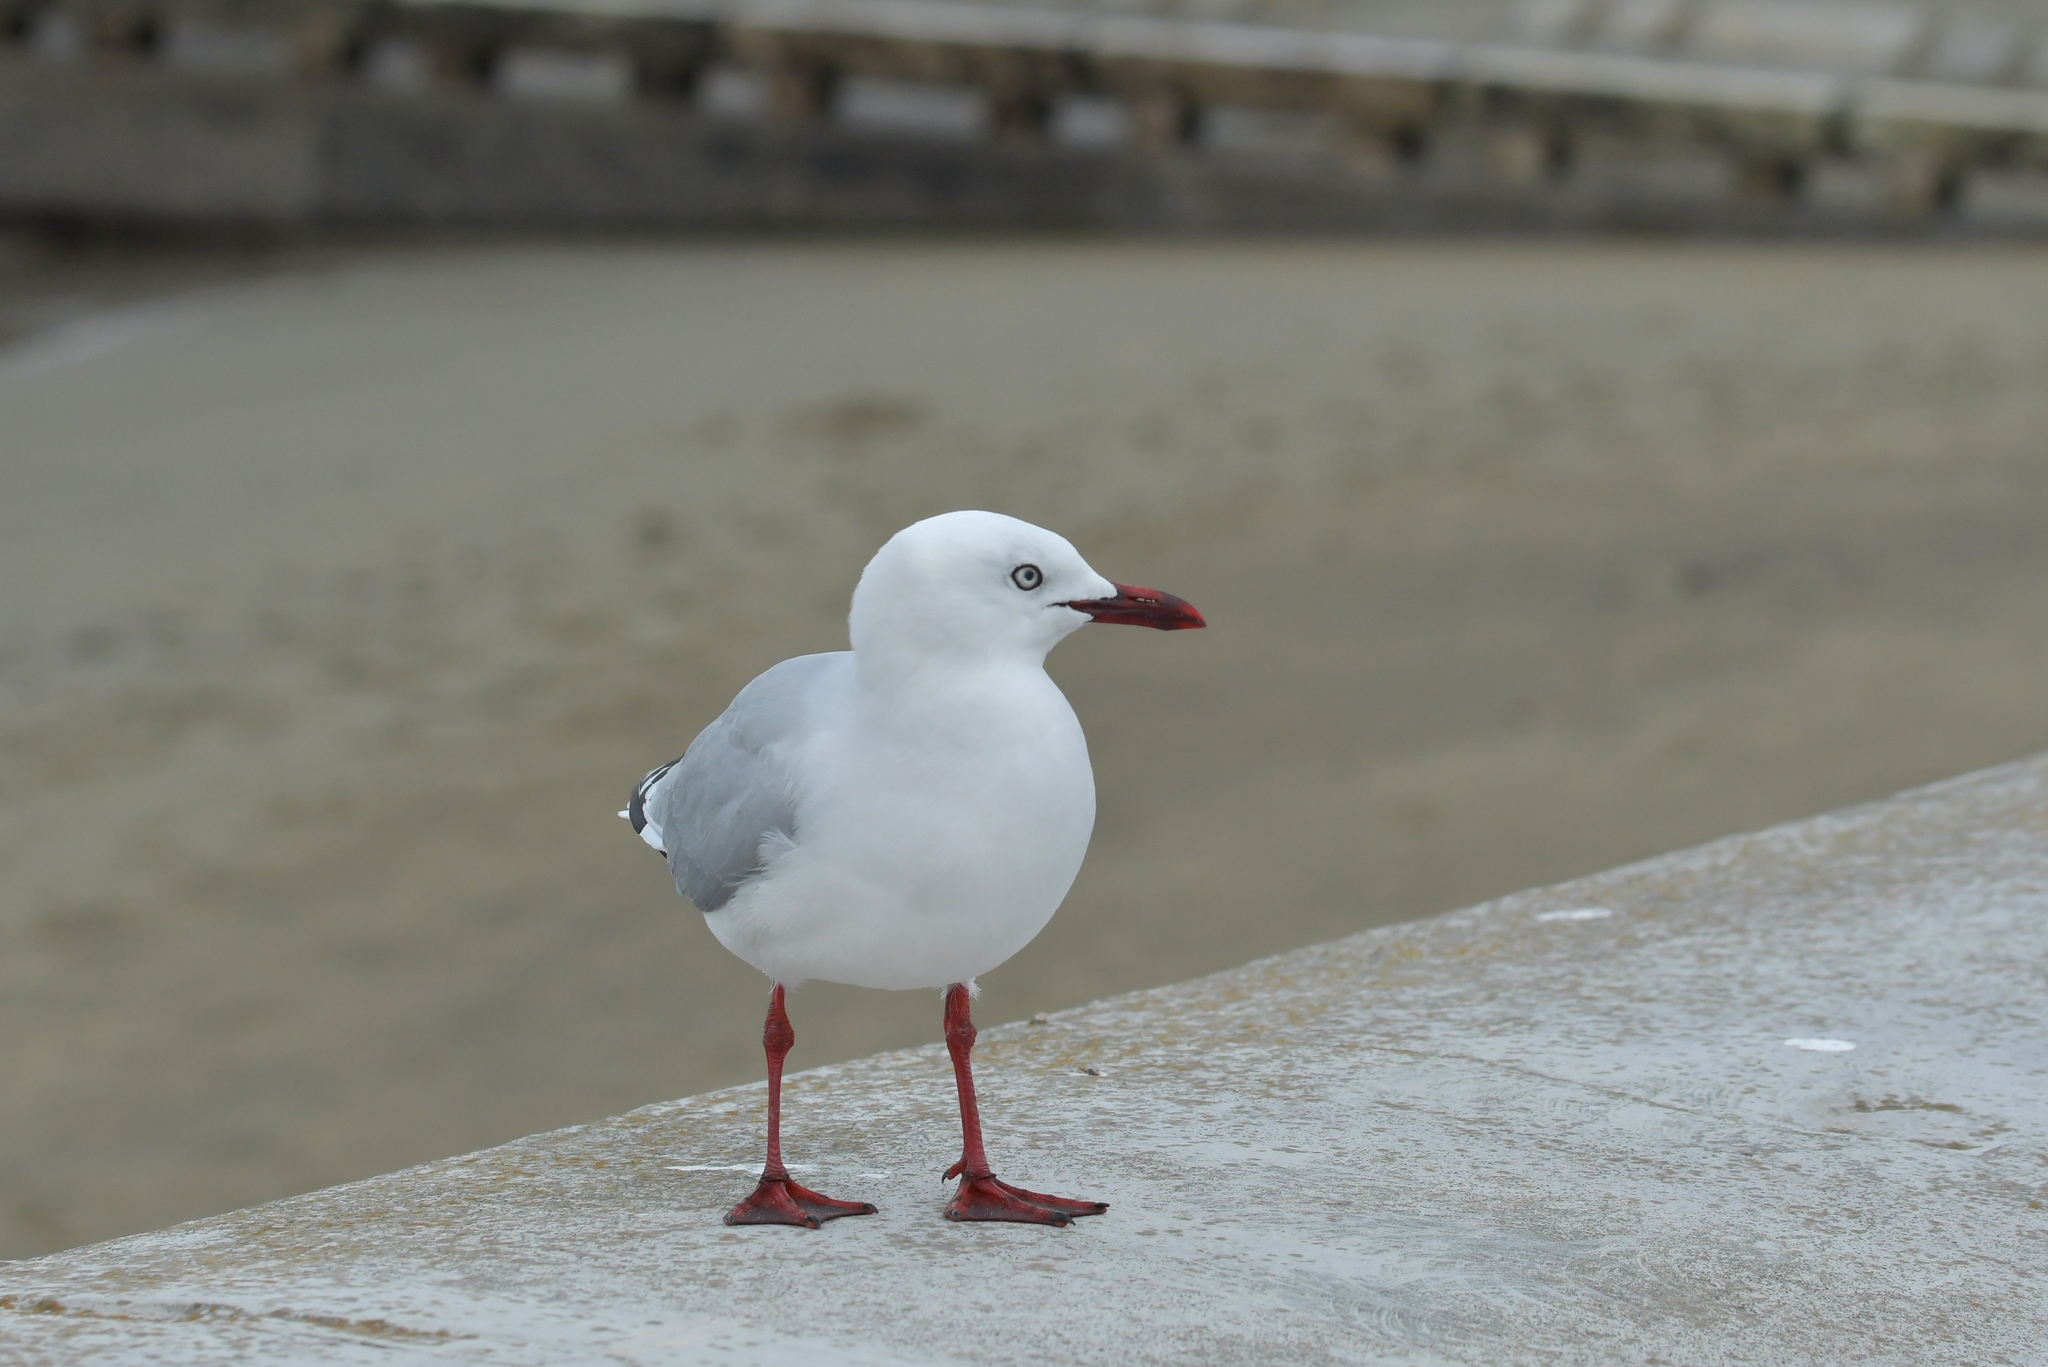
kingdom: Animalia
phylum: Chordata
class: Aves
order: Charadriiformes
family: Laridae
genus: Chroicocephalus
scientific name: Chroicocephalus novaehollandiae
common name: Silver gull
